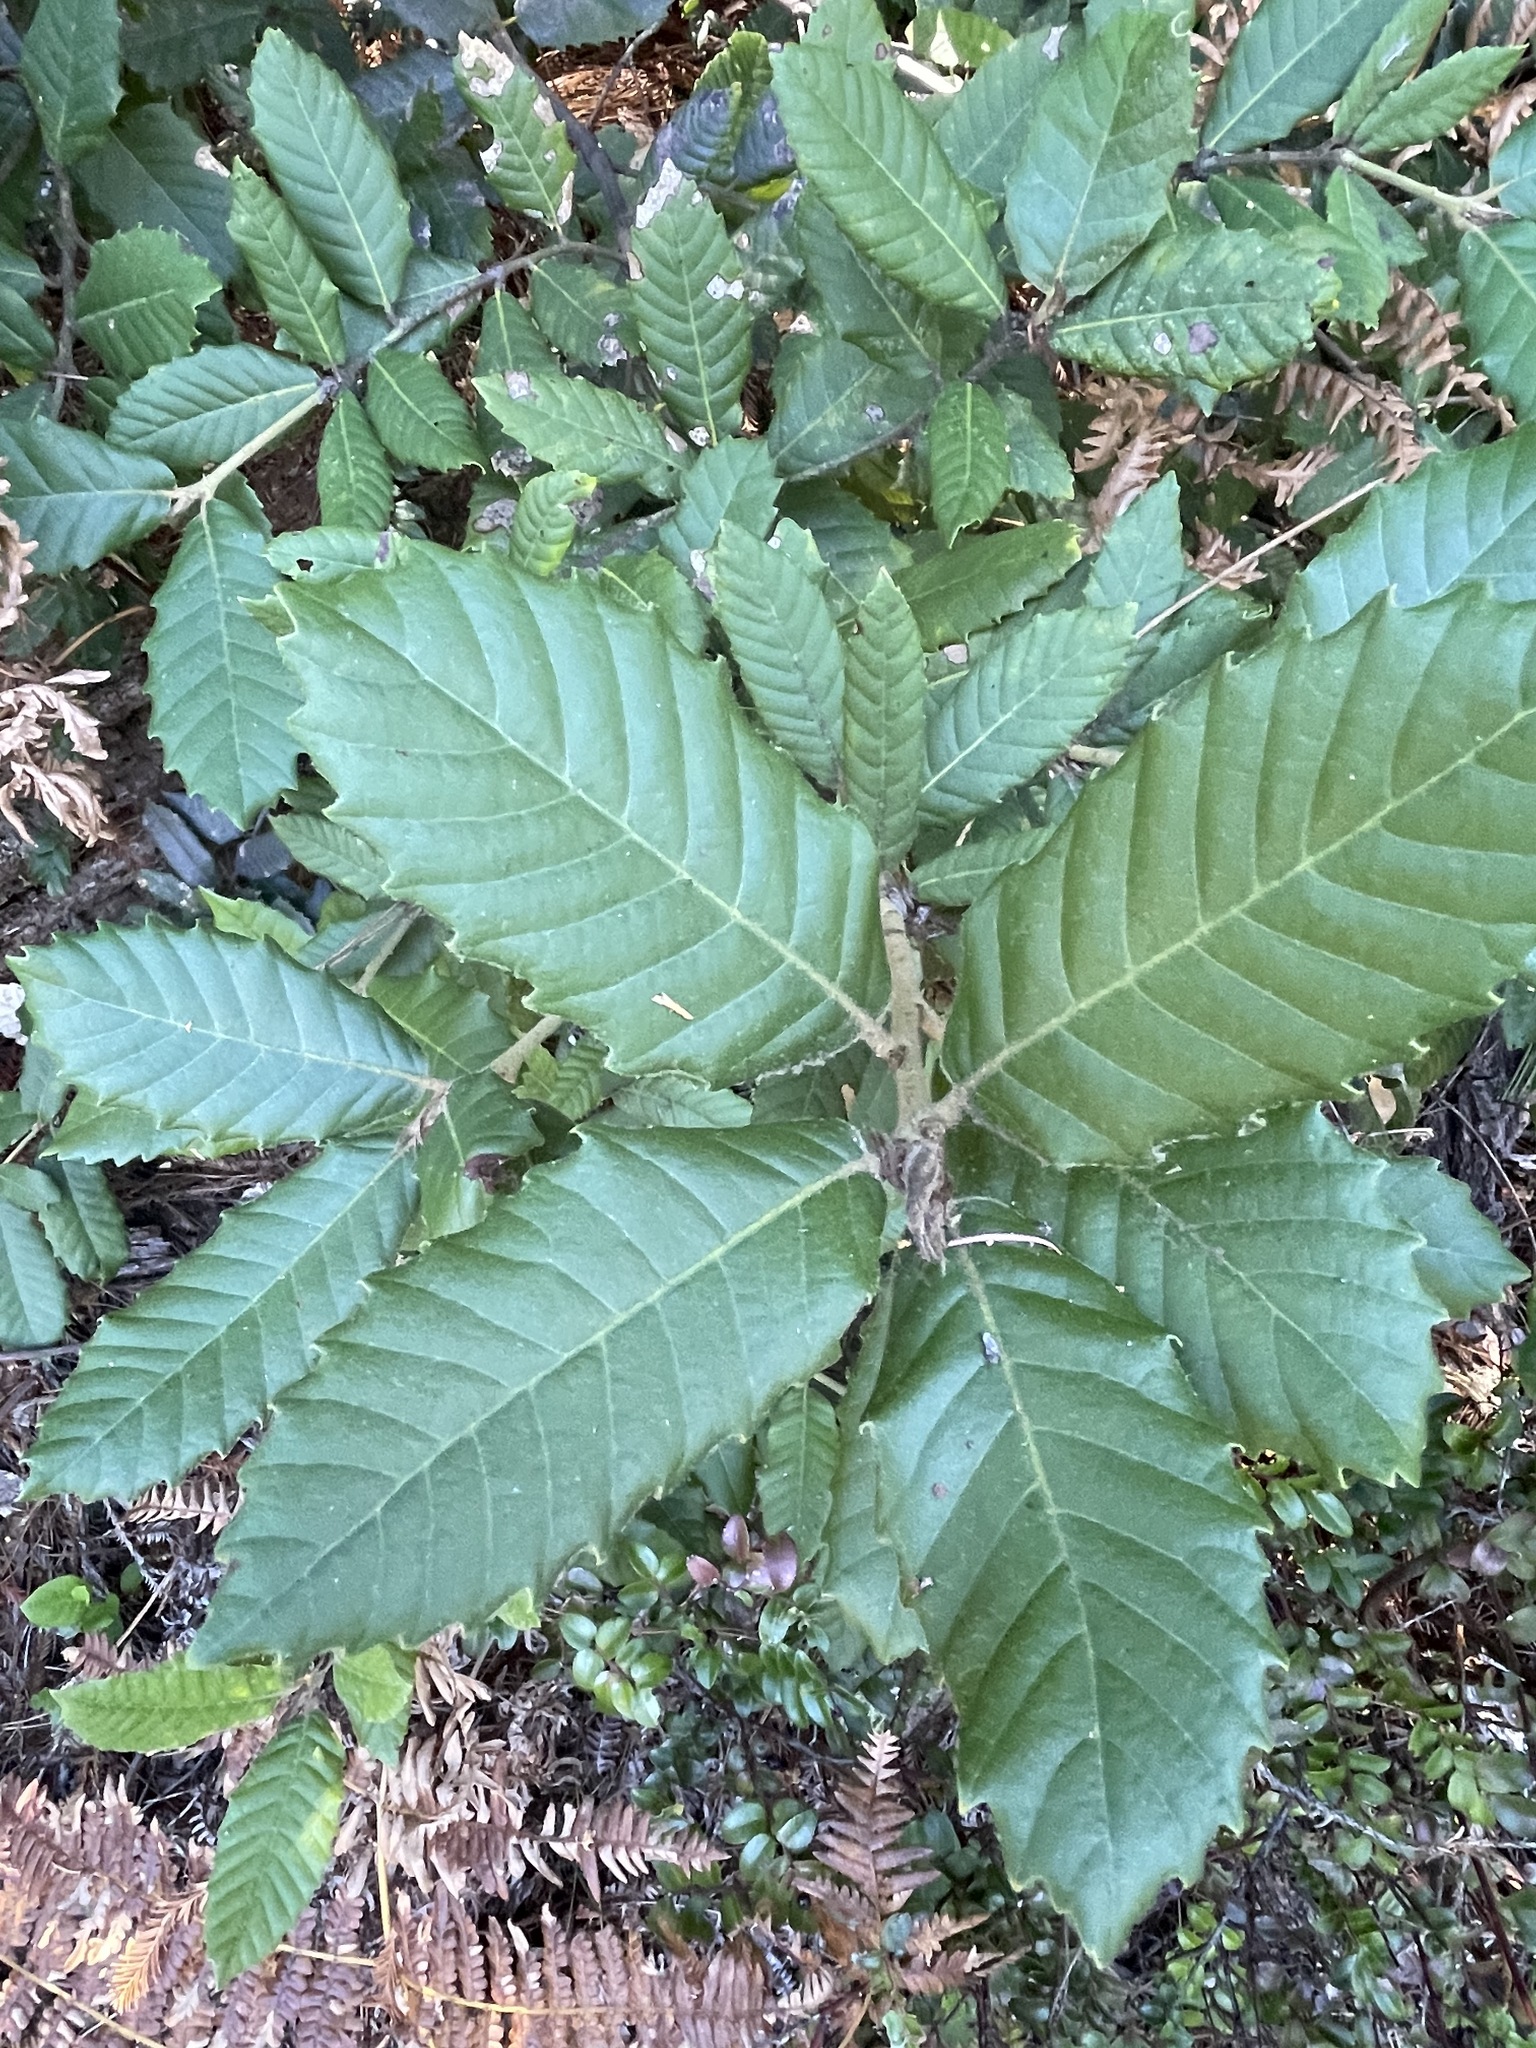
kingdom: Plantae
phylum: Tracheophyta
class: Magnoliopsida
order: Fagales
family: Fagaceae
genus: Notholithocarpus
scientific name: Notholithocarpus densiflorus
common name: Tan bark oak
